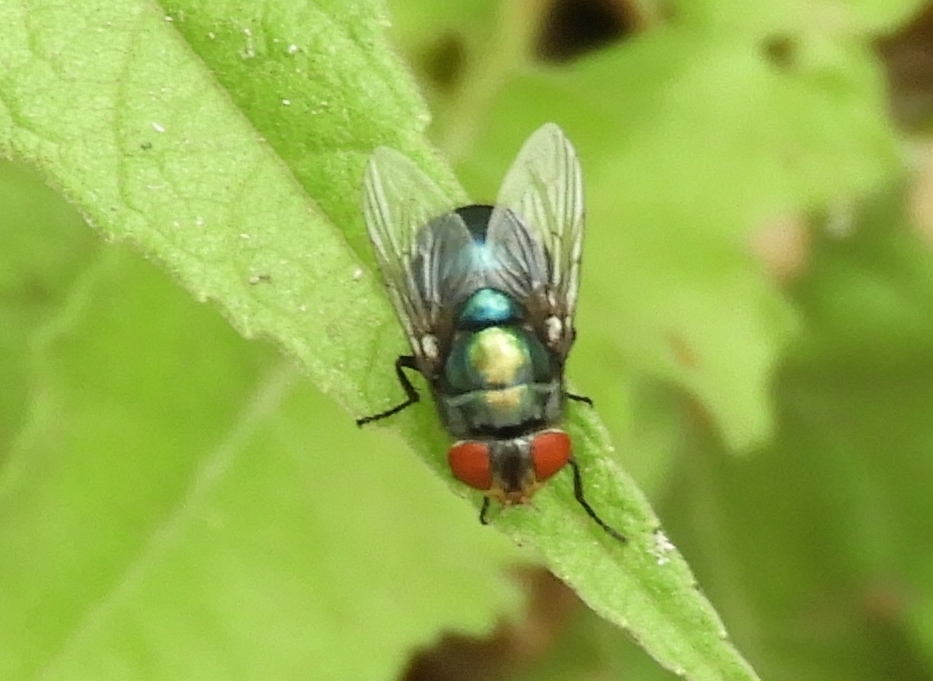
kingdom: Animalia
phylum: Arthropoda
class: Insecta
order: Diptera
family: Calliphoridae
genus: Chrysomya
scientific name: Chrysomya megacephala
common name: Blow fly
